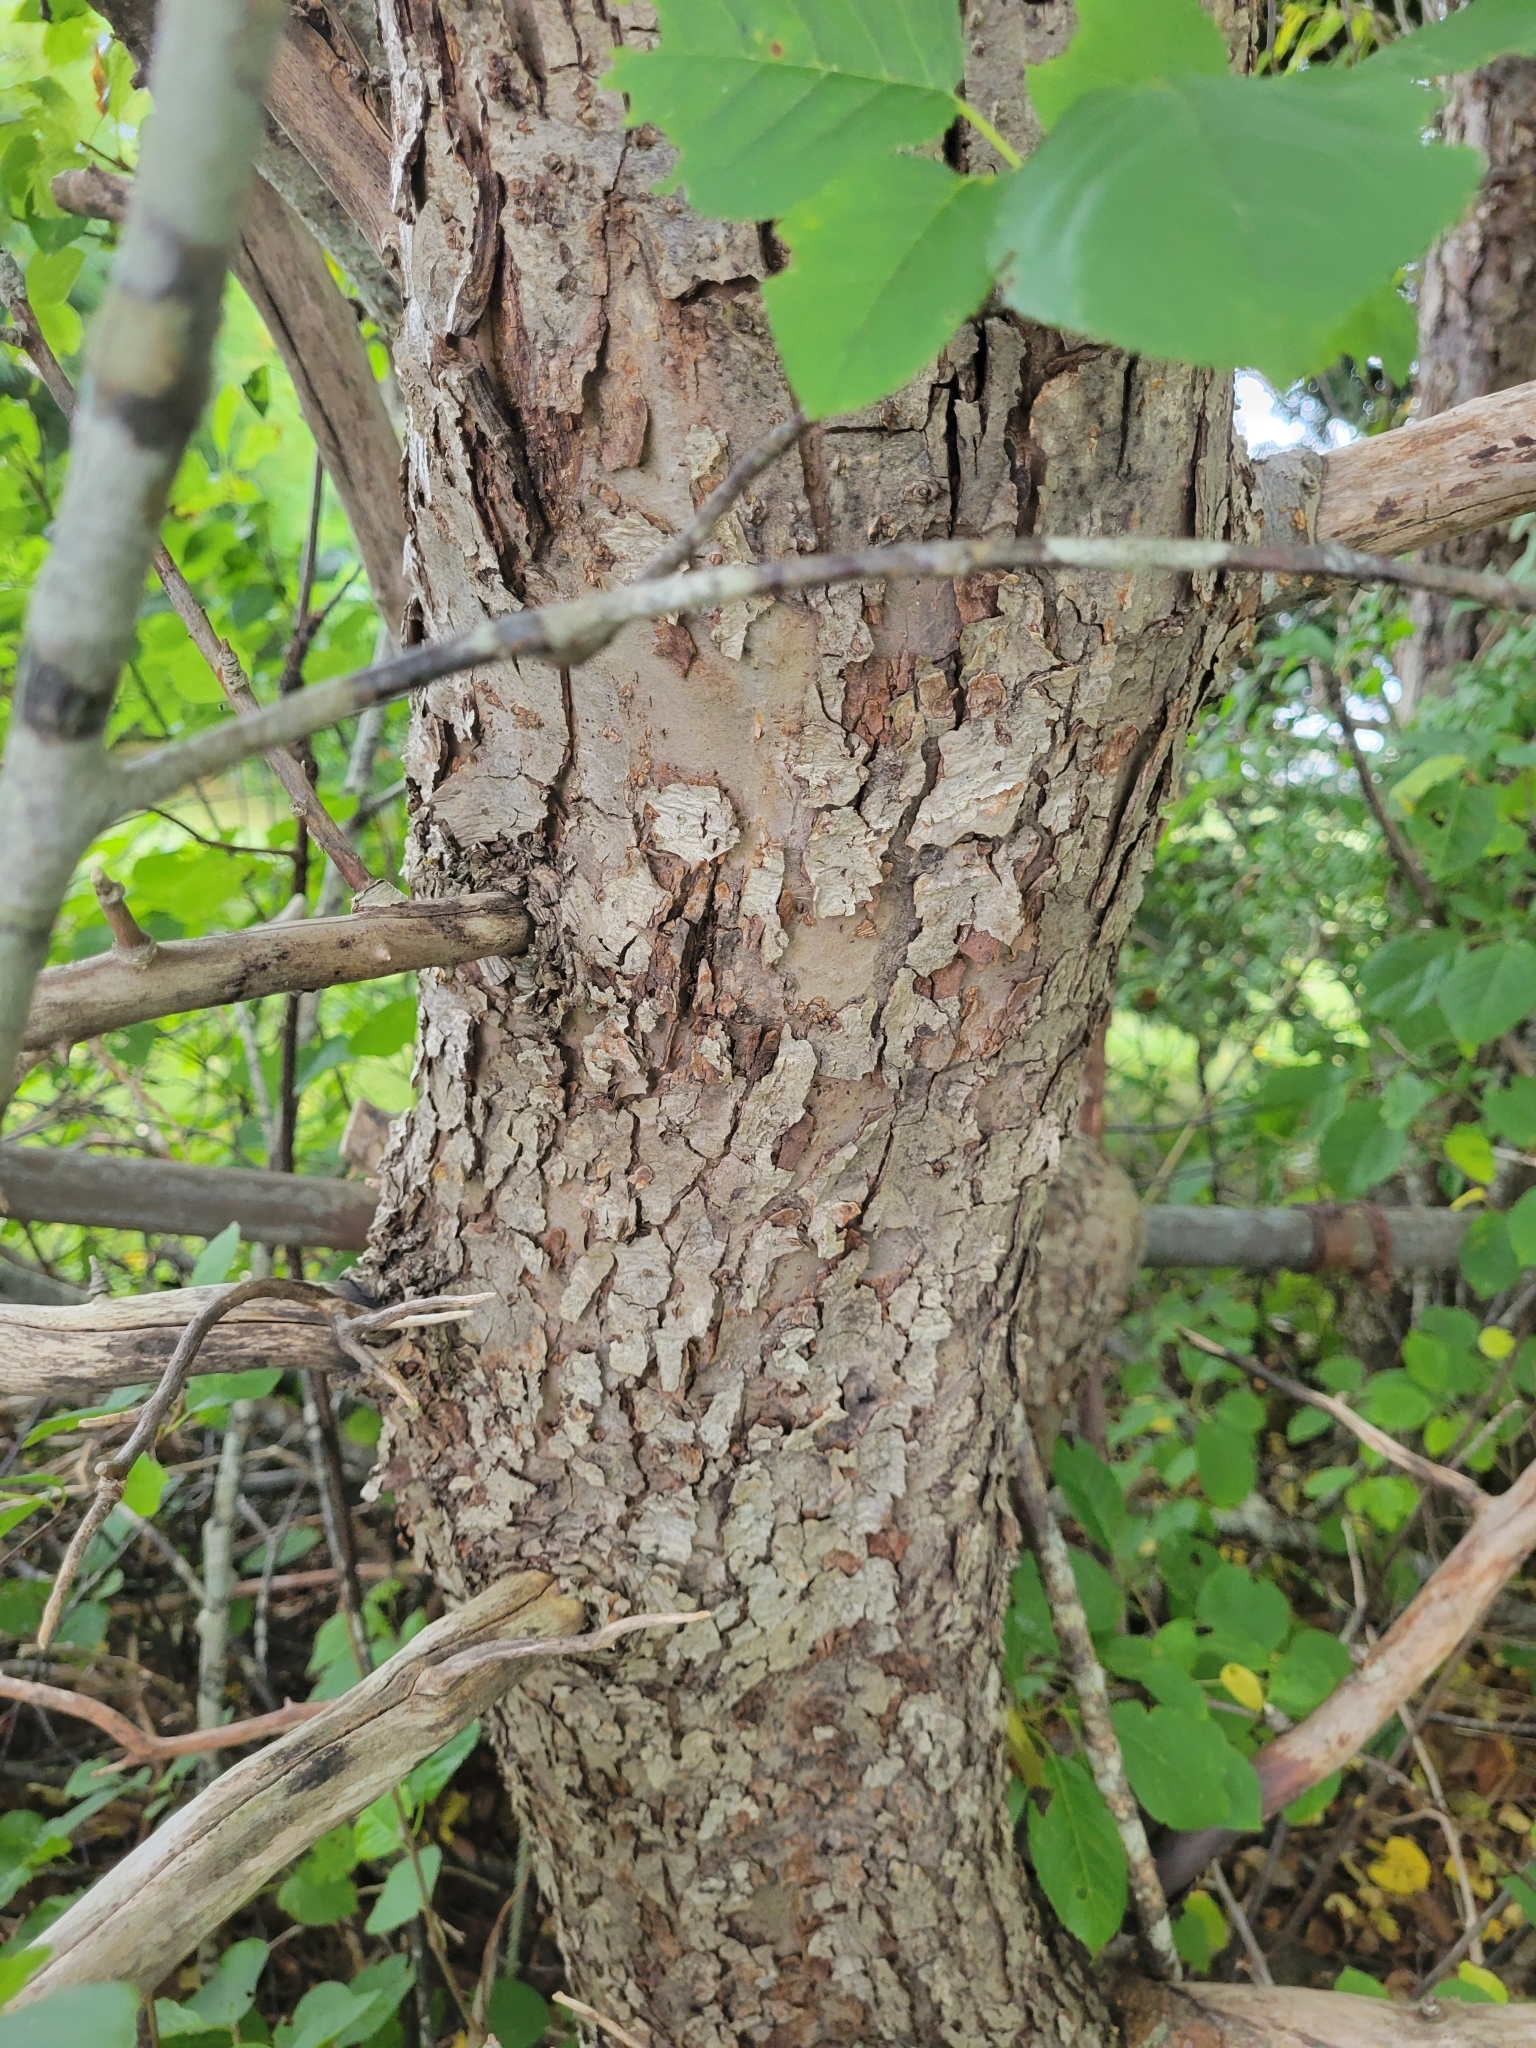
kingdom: Plantae
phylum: Tracheophyta
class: Magnoliopsida
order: Rosales
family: Rosaceae
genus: Malus
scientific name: Malus domestica
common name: Apple
